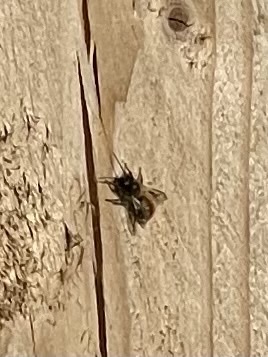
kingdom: Animalia
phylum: Arthropoda
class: Insecta
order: Hymenoptera
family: Megachilidae
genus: Osmia
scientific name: Osmia bicornis
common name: Red mason bee
